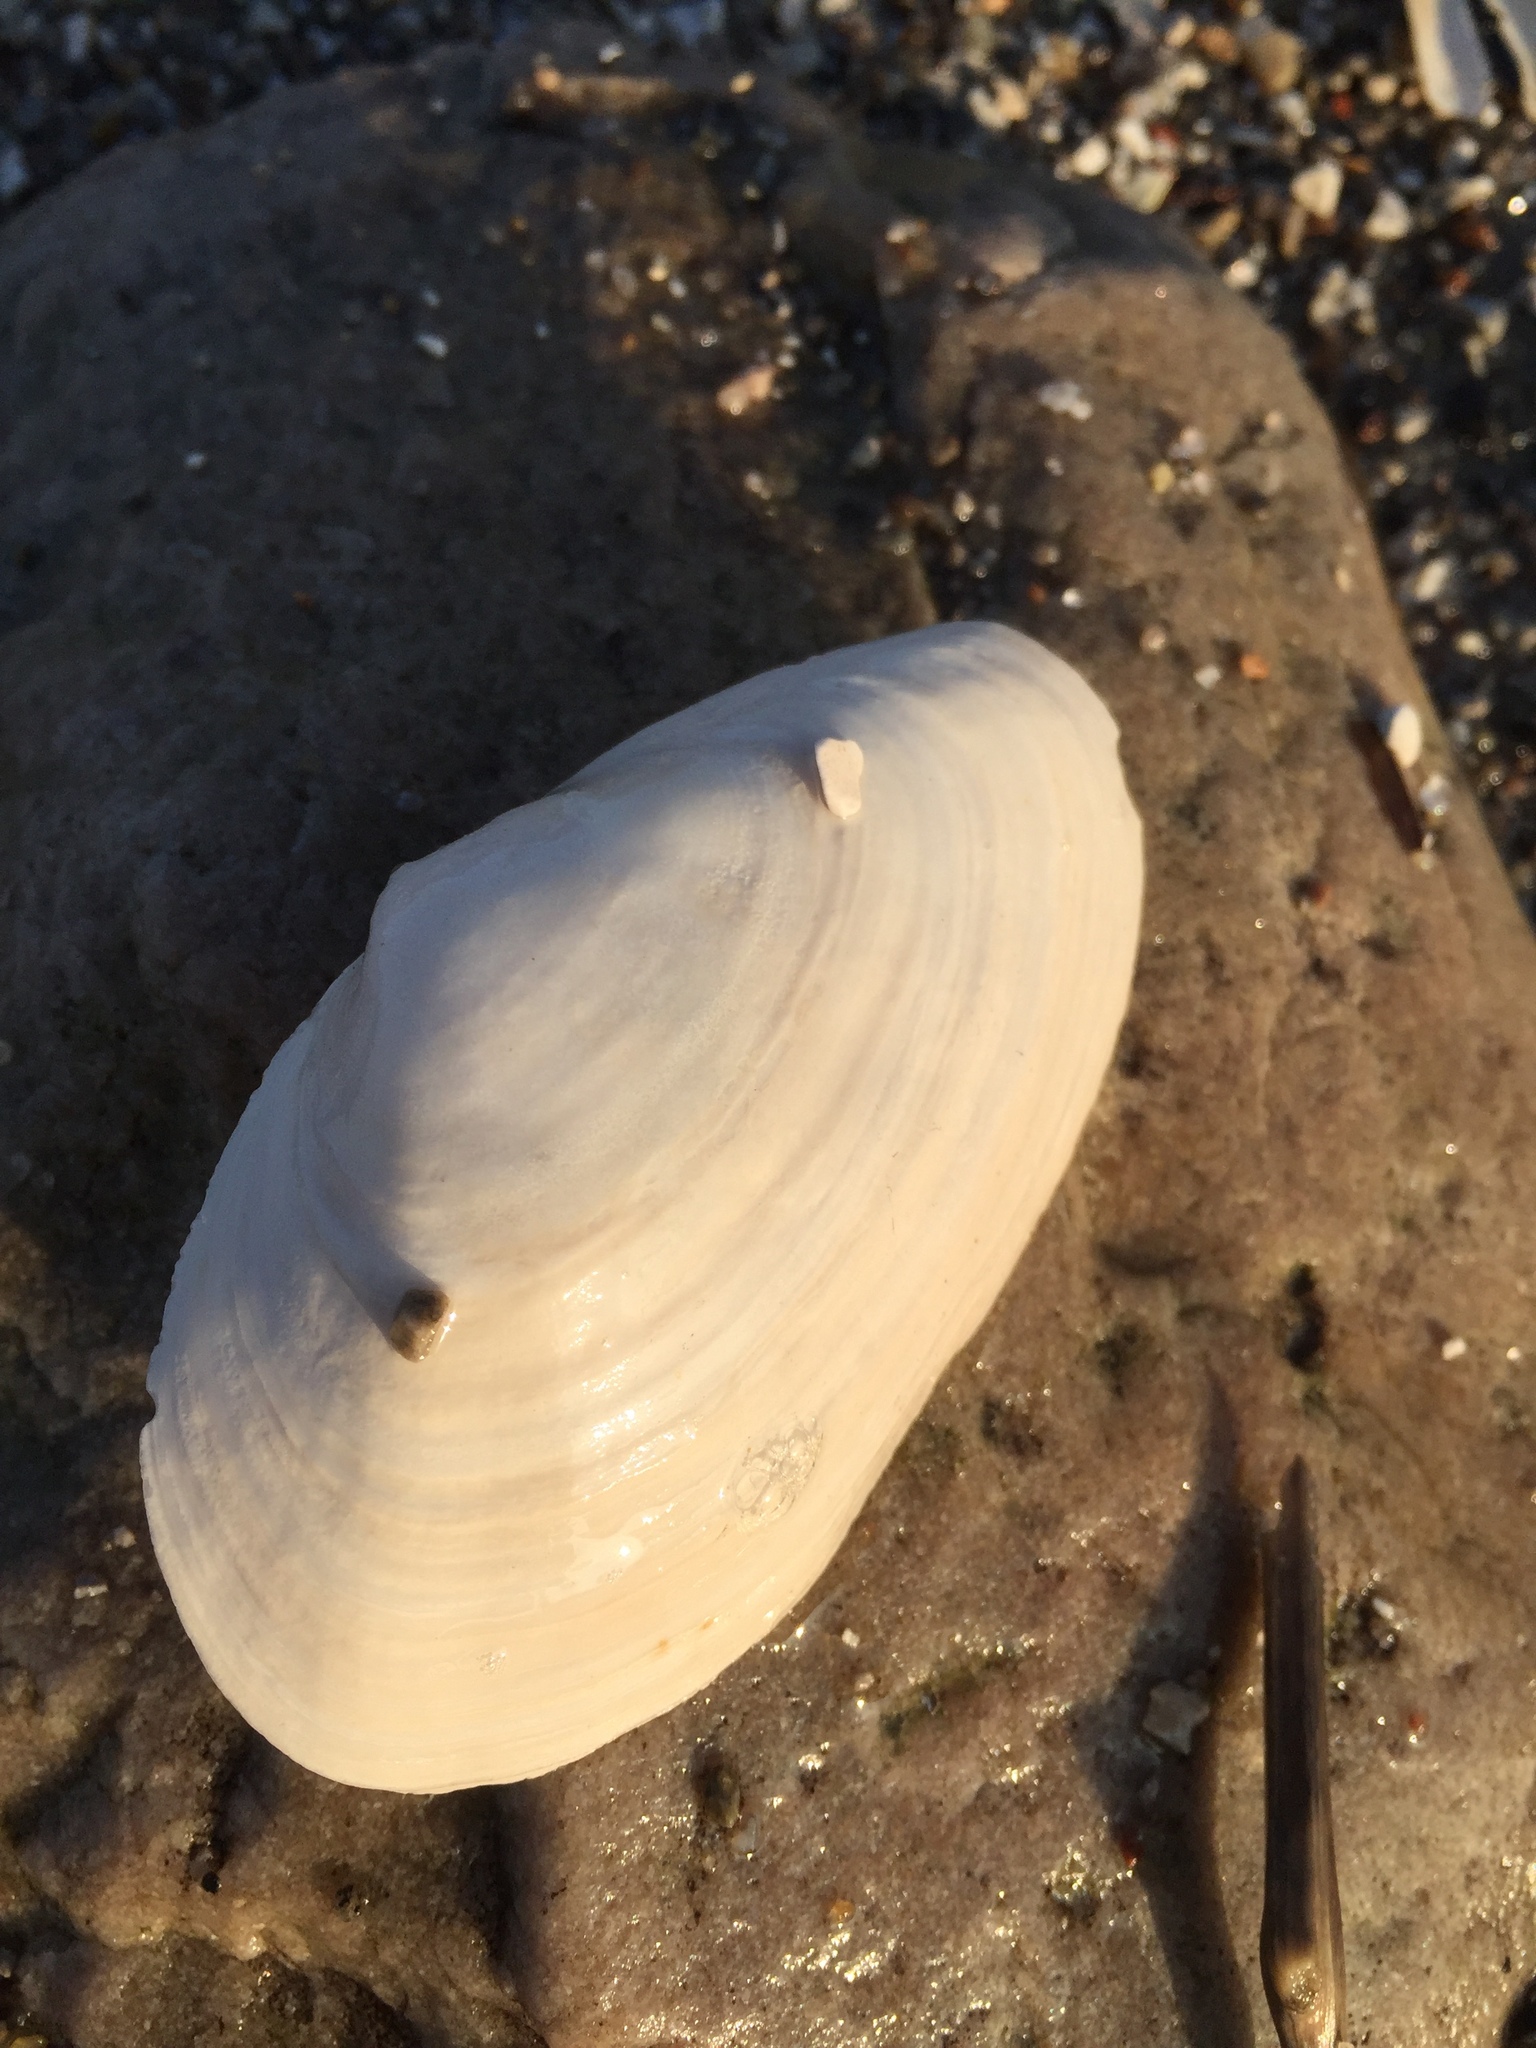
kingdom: Animalia
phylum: Mollusca
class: Bivalvia
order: Myida
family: Myidae
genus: Mya
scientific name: Mya arenaria
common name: Soft-shelled clam
